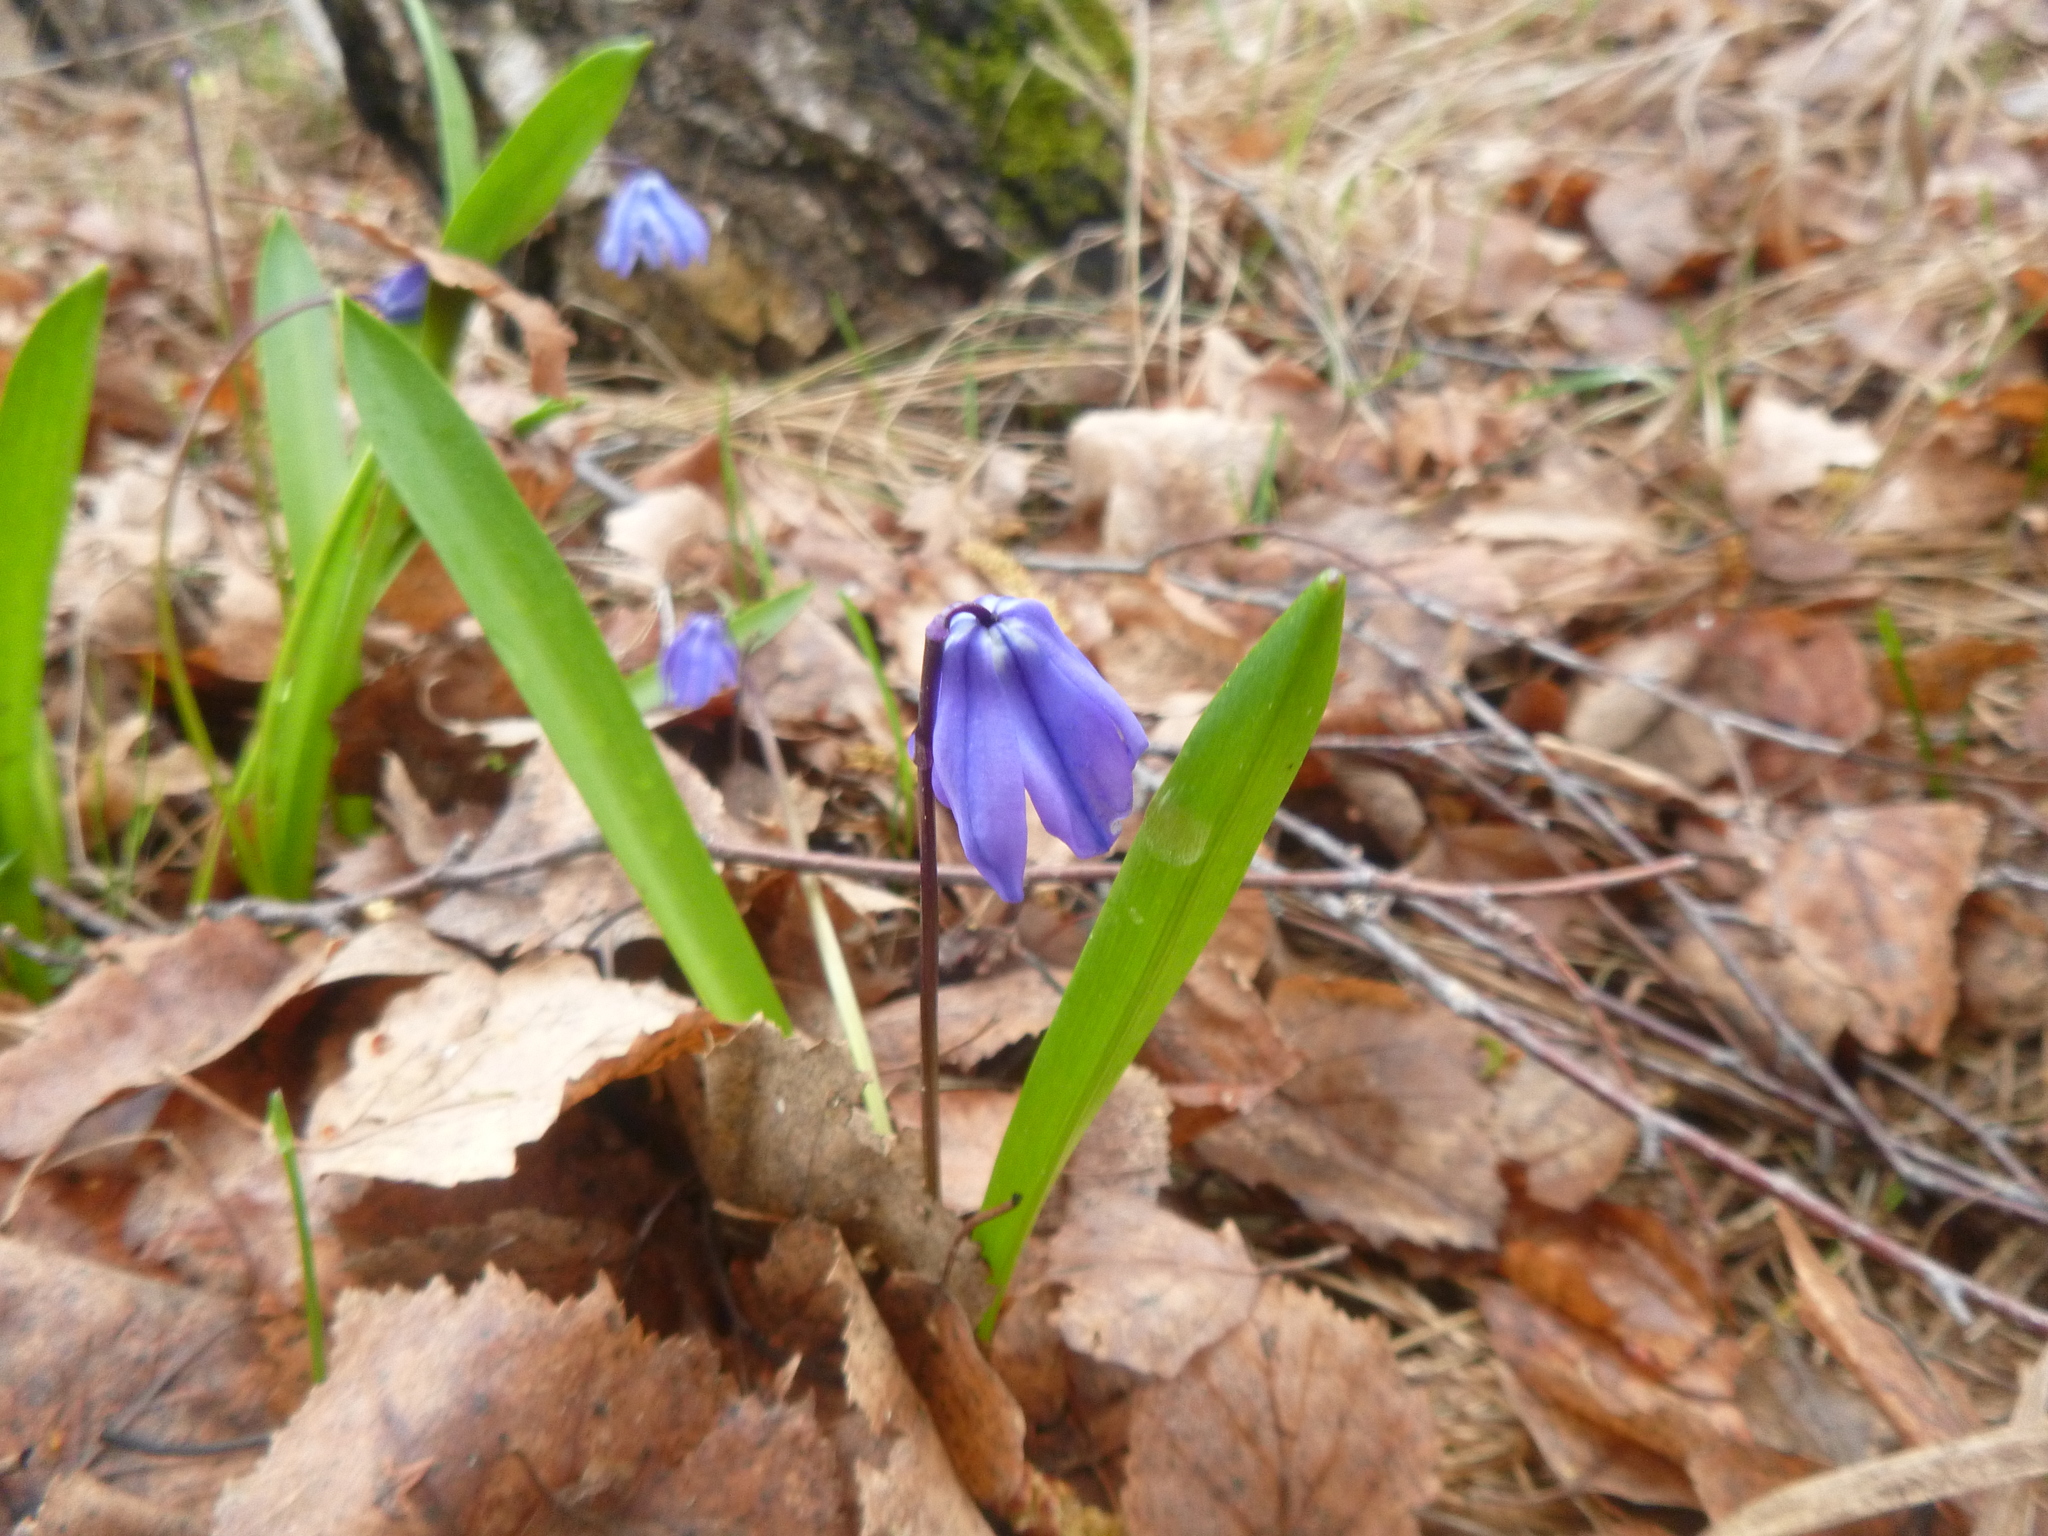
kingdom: Plantae
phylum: Tracheophyta
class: Liliopsida
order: Asparagales
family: Asparagaceae
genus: Scilla
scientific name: Scilla siberica
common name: Siberian squill
